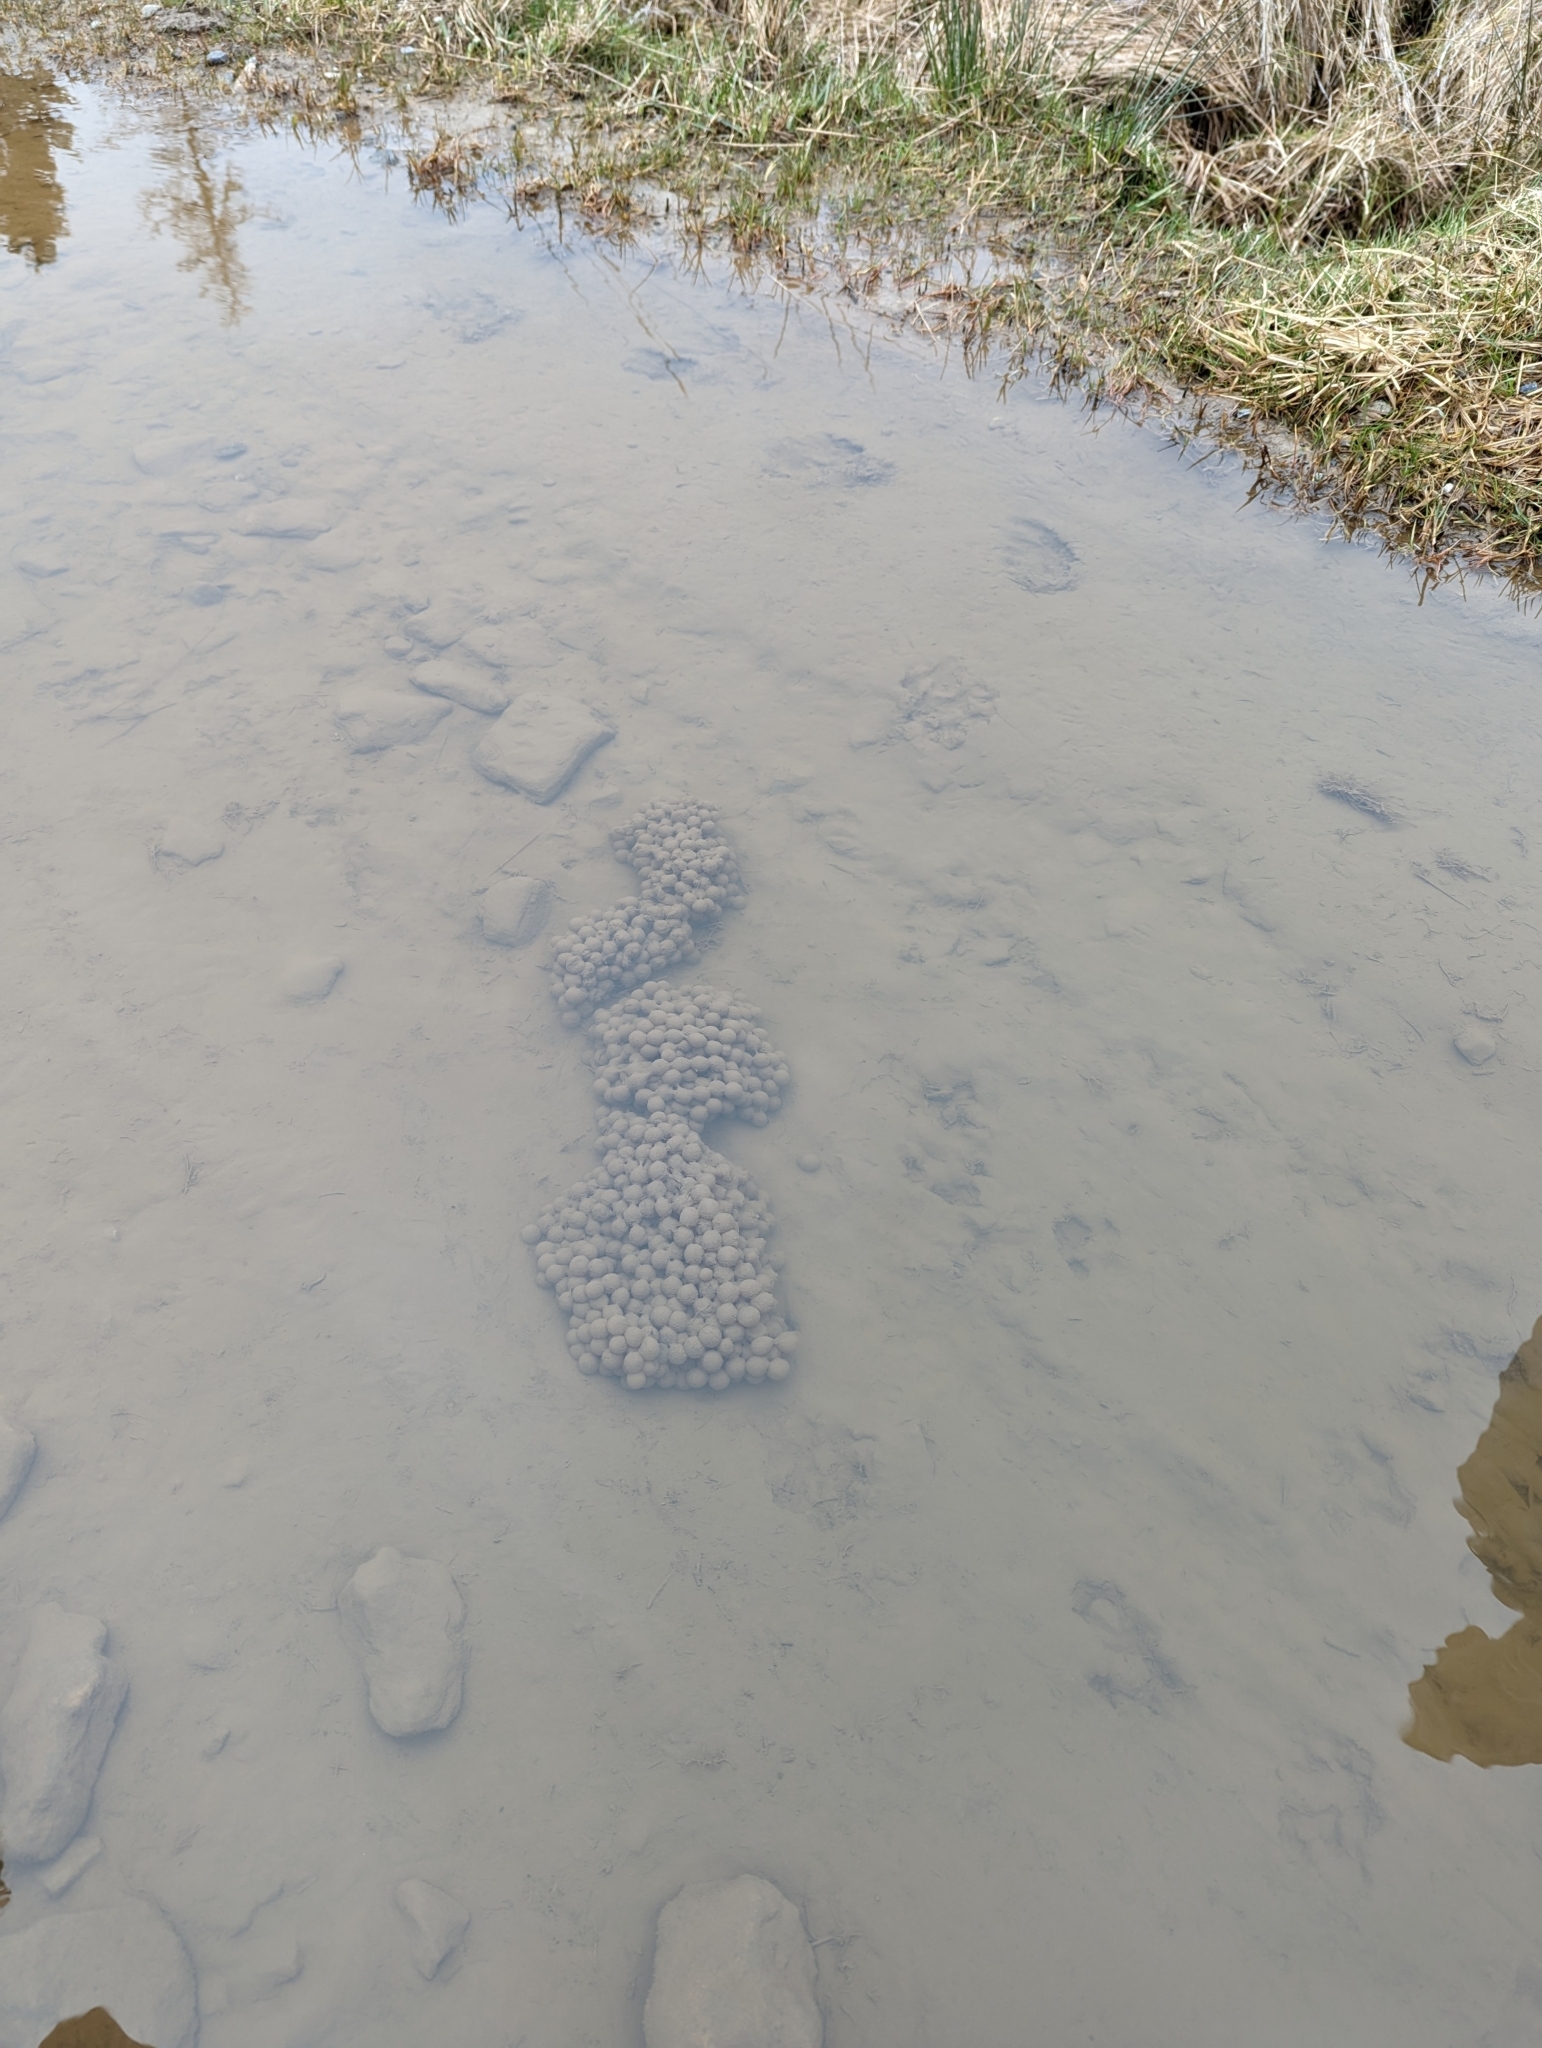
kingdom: Animalia
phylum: Chordata
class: Amphibia
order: Anura
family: Ranidae
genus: Rana
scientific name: Rana temporaria
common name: Common frog
